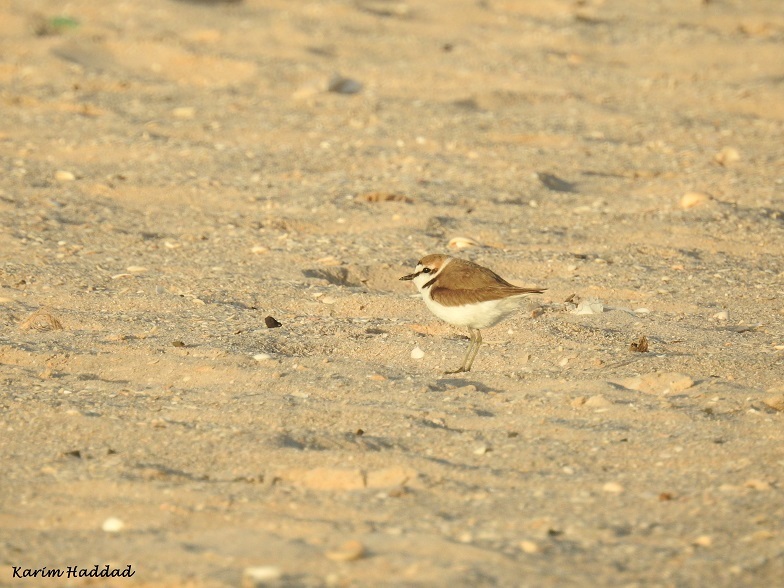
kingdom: Animalia
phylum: Chordata
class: Aves
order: Charadriiformes
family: Charadriidae
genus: Charadrius
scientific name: Charadrius alexandrinus
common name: Kentish plover
